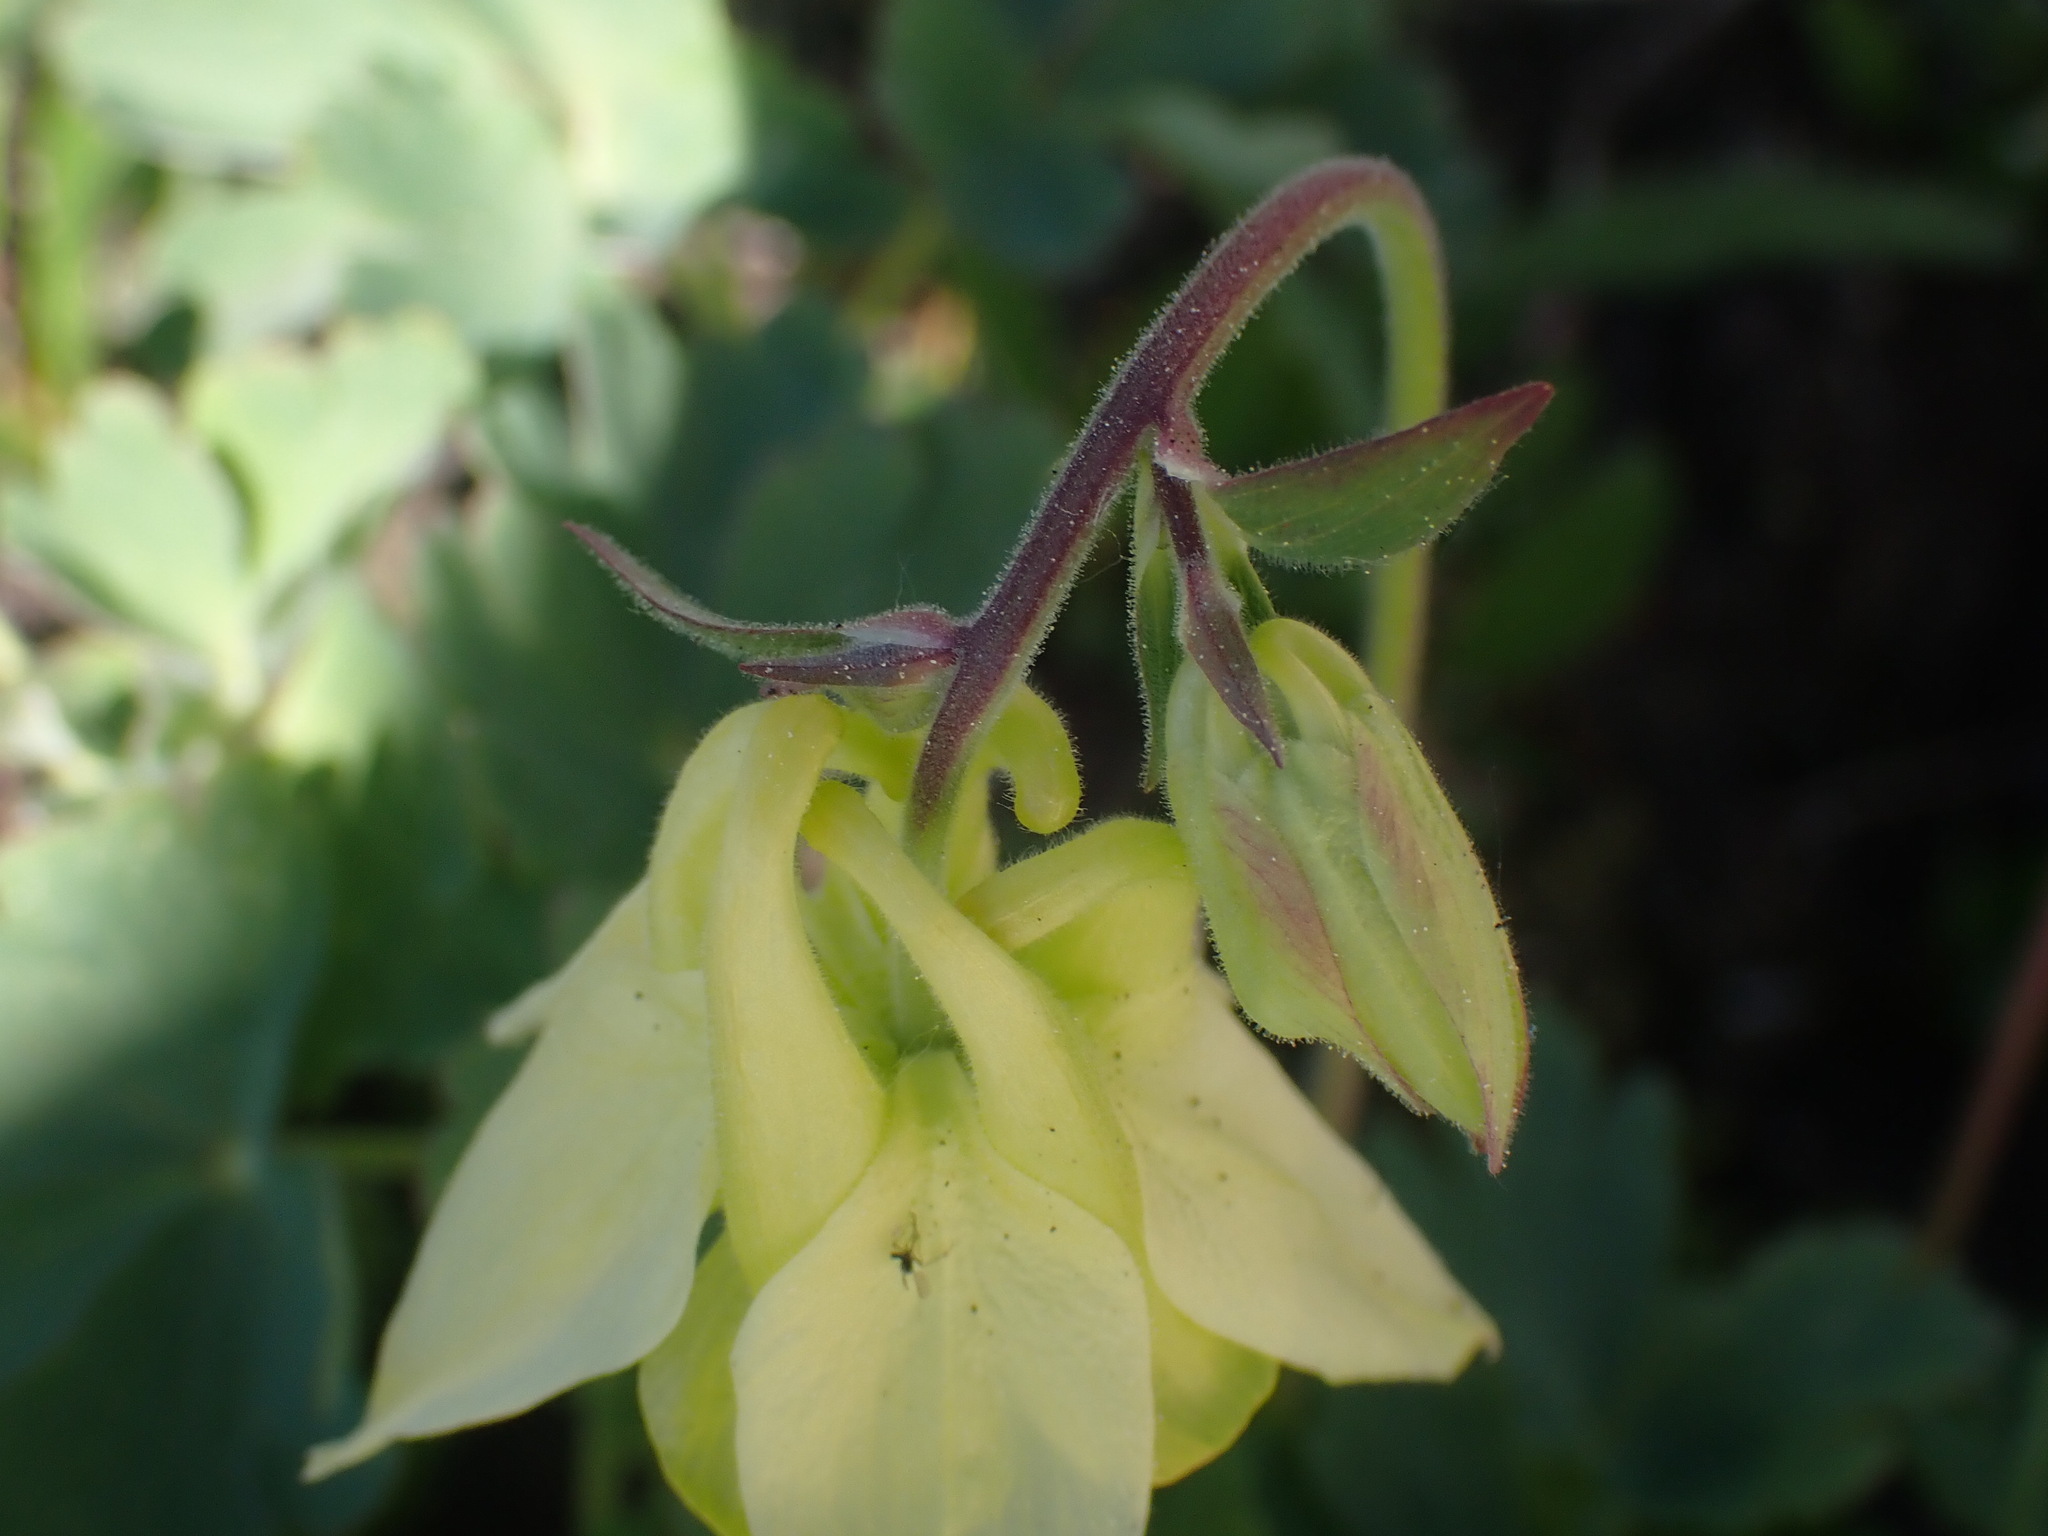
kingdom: Plantae
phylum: Tracheophyta
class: Magnoliopsida
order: Ranunculales
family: Ranunculaceae
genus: Aquilegia
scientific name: Aquilegia flavescens
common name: Yellow columbine
